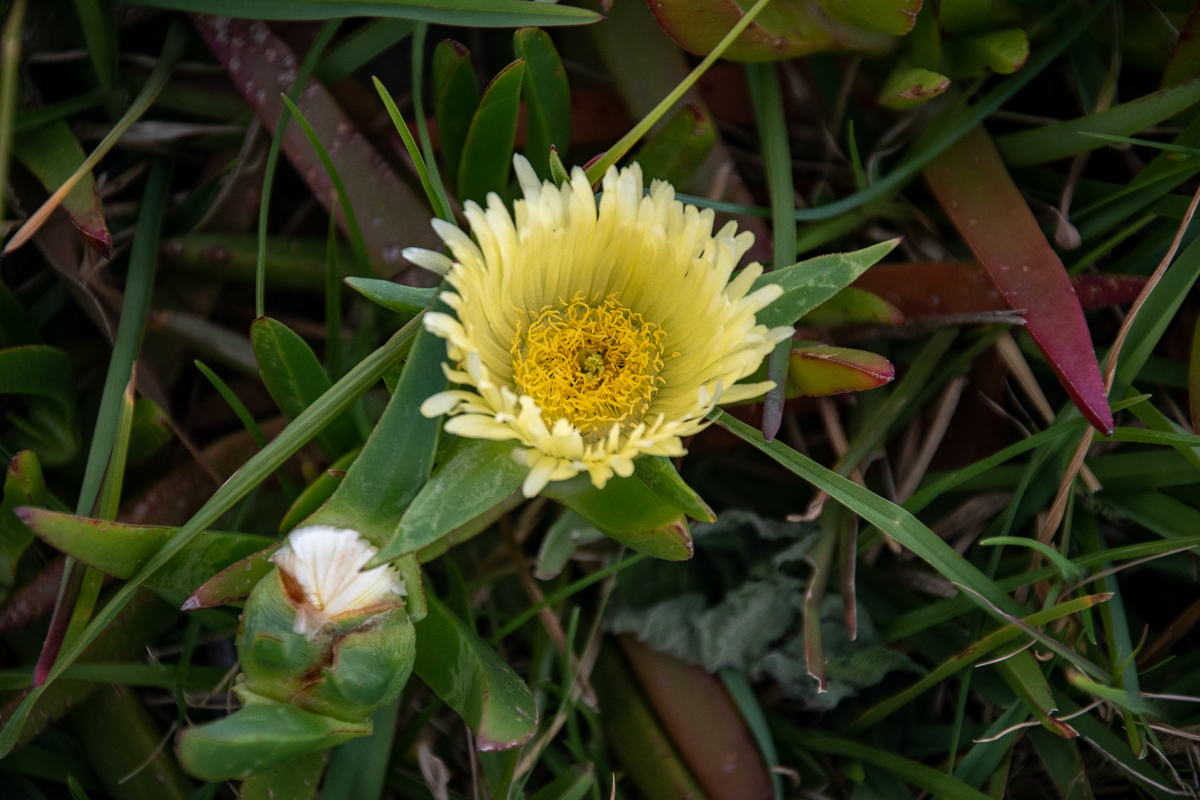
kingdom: Plantae
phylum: Tracheophyta
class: Magnoliopsida
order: Caryophyllales
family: Aizoaceae
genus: Carpobrotus
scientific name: Carpobrotus edulis
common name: Hottentot-fig
